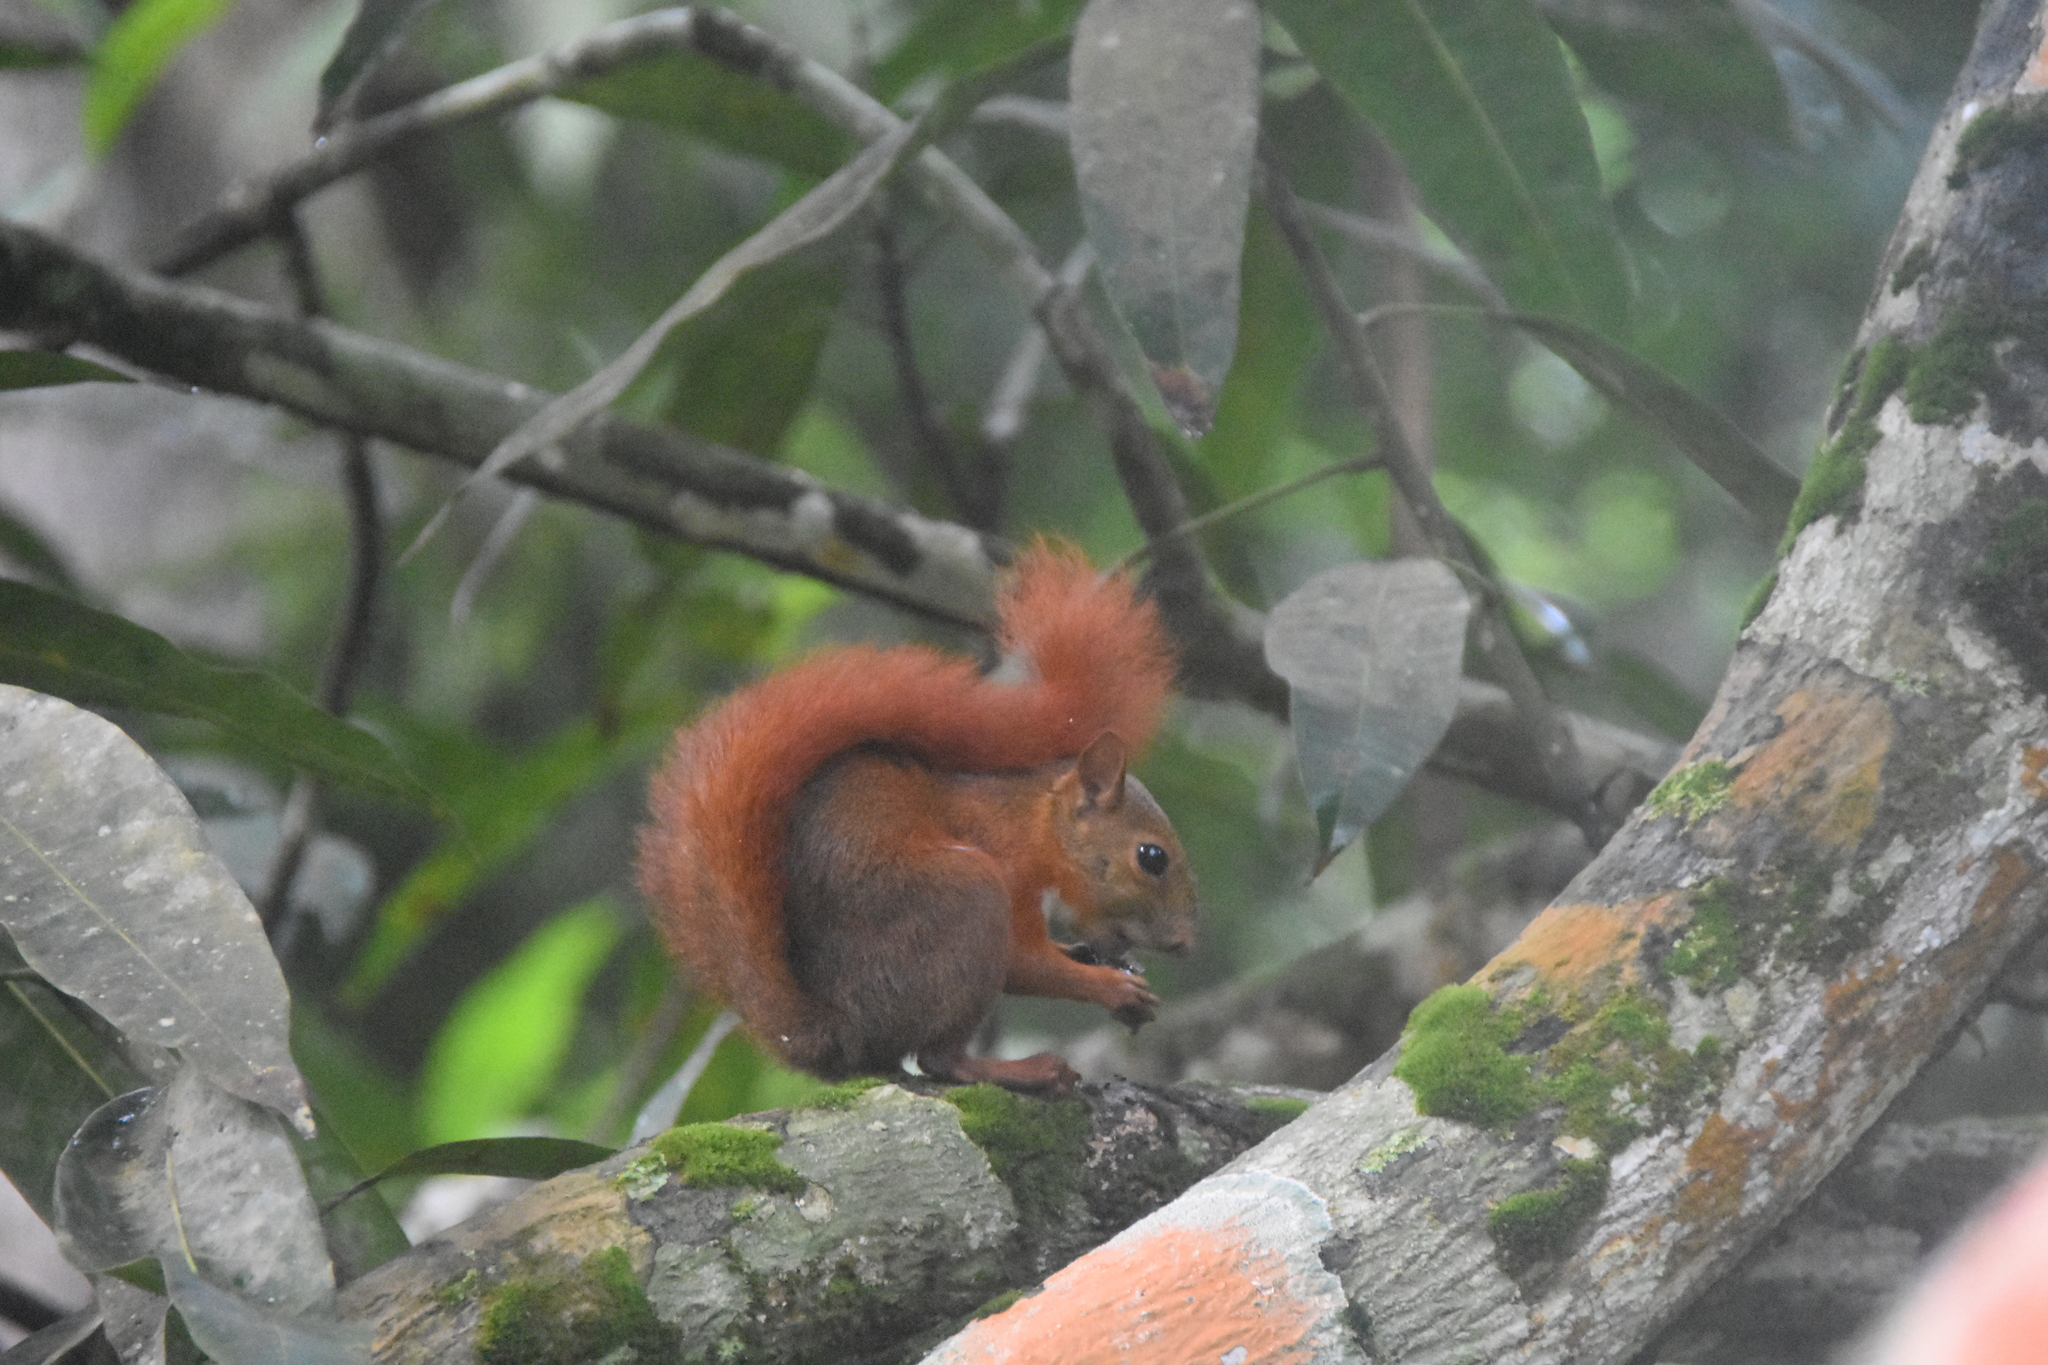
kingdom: Animalia
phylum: Chordata
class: Mammalia
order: Rodentia
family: Sciuridae
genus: Sciurus
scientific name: Sciurus granatensis
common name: Red-tailed squirrel
